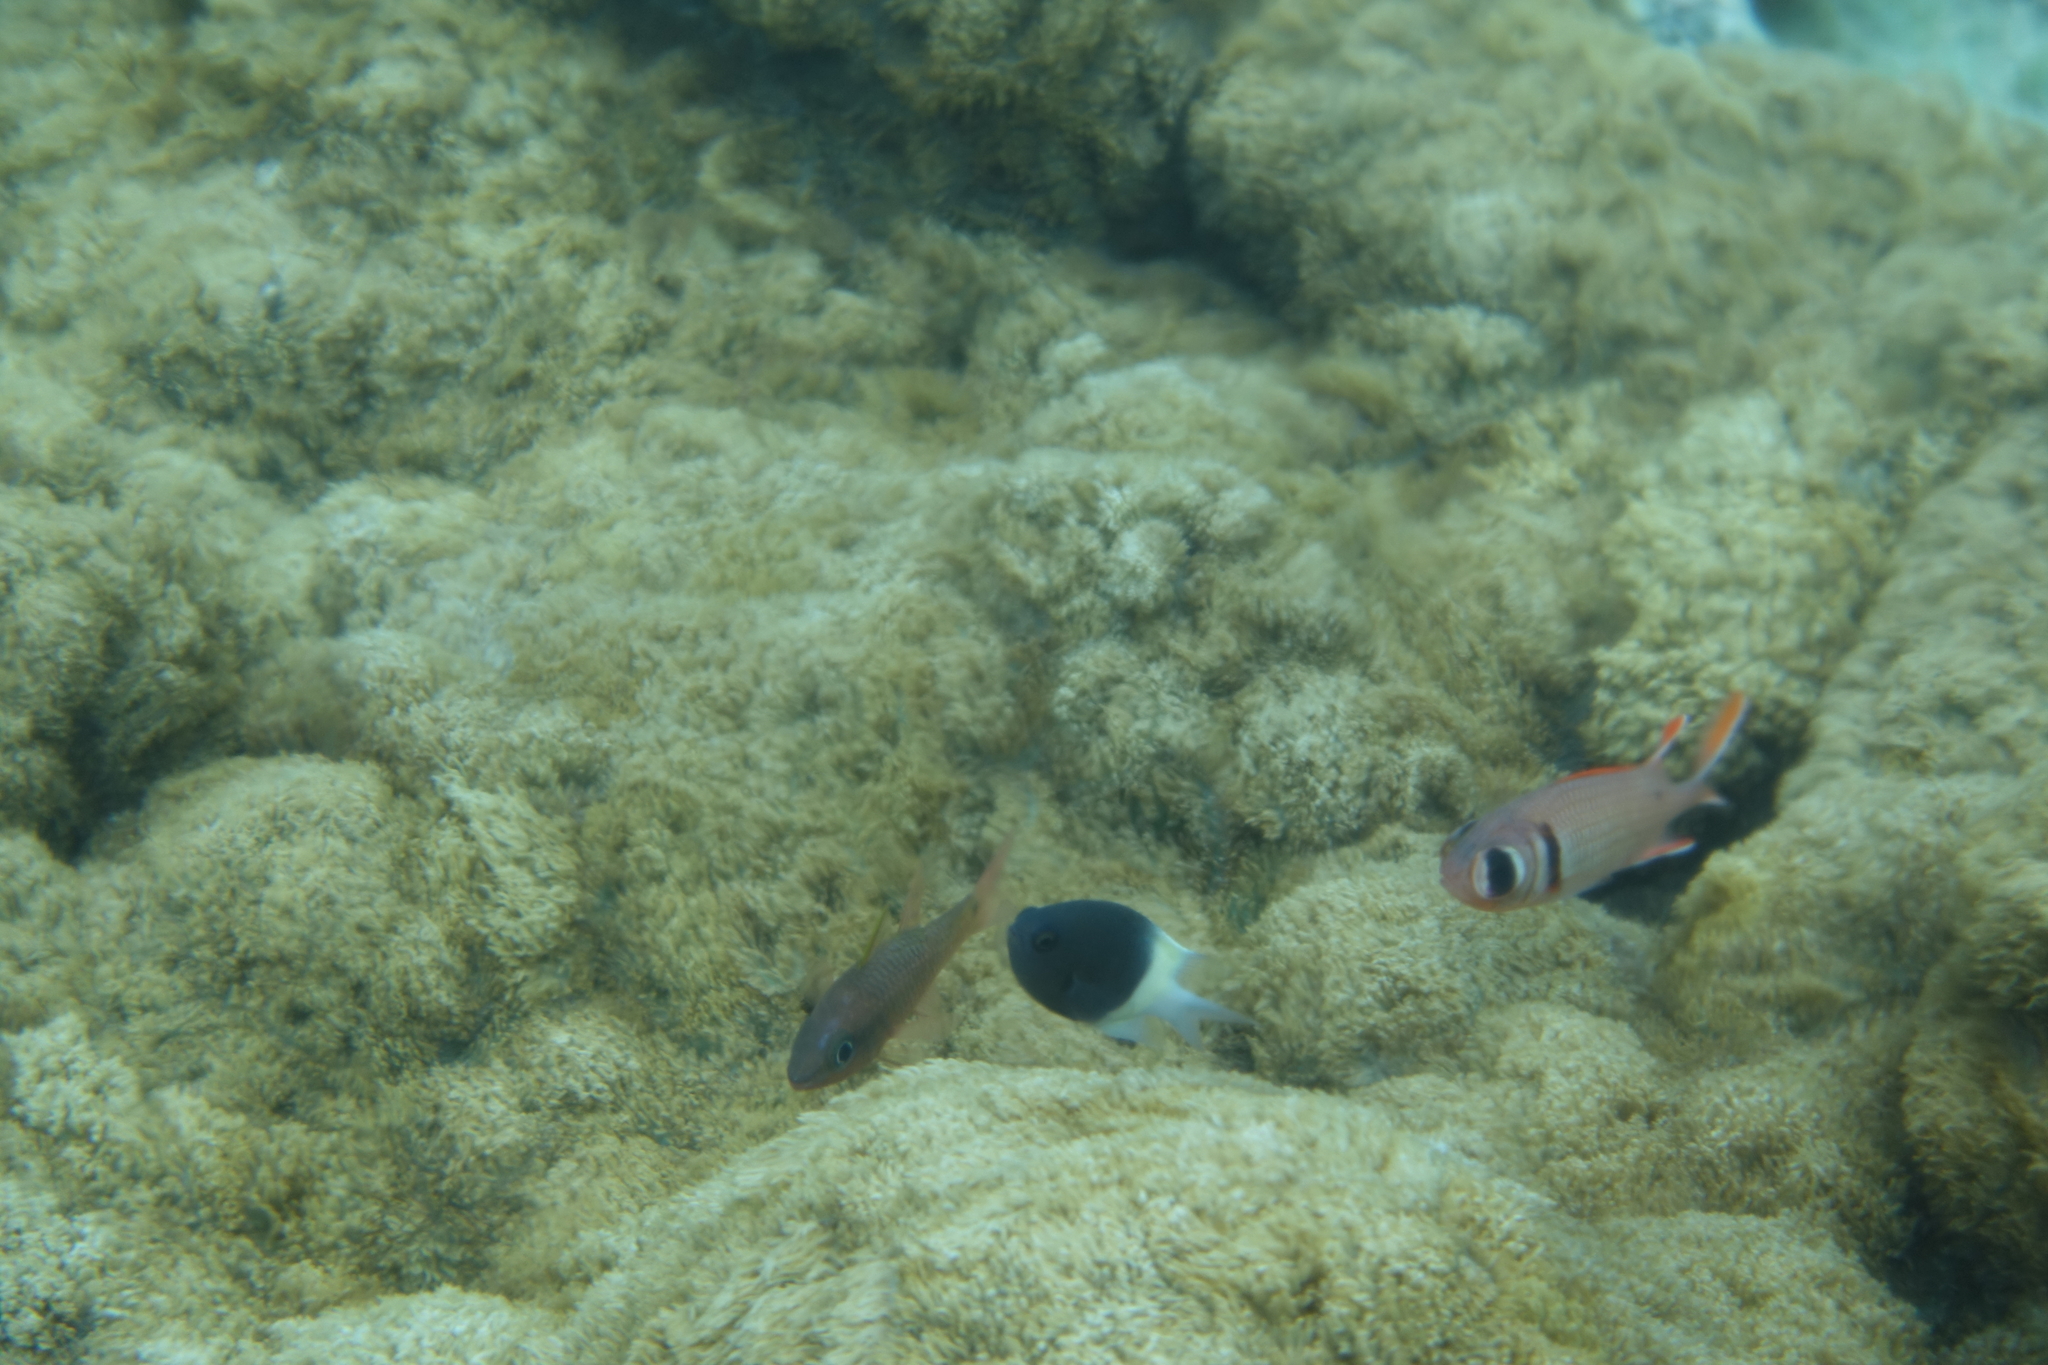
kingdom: Animalia
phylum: Chordata
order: Perciformes
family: Pomacentridae
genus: Chromis
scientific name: Chromis fieldi
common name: Chocolatedip chromis
